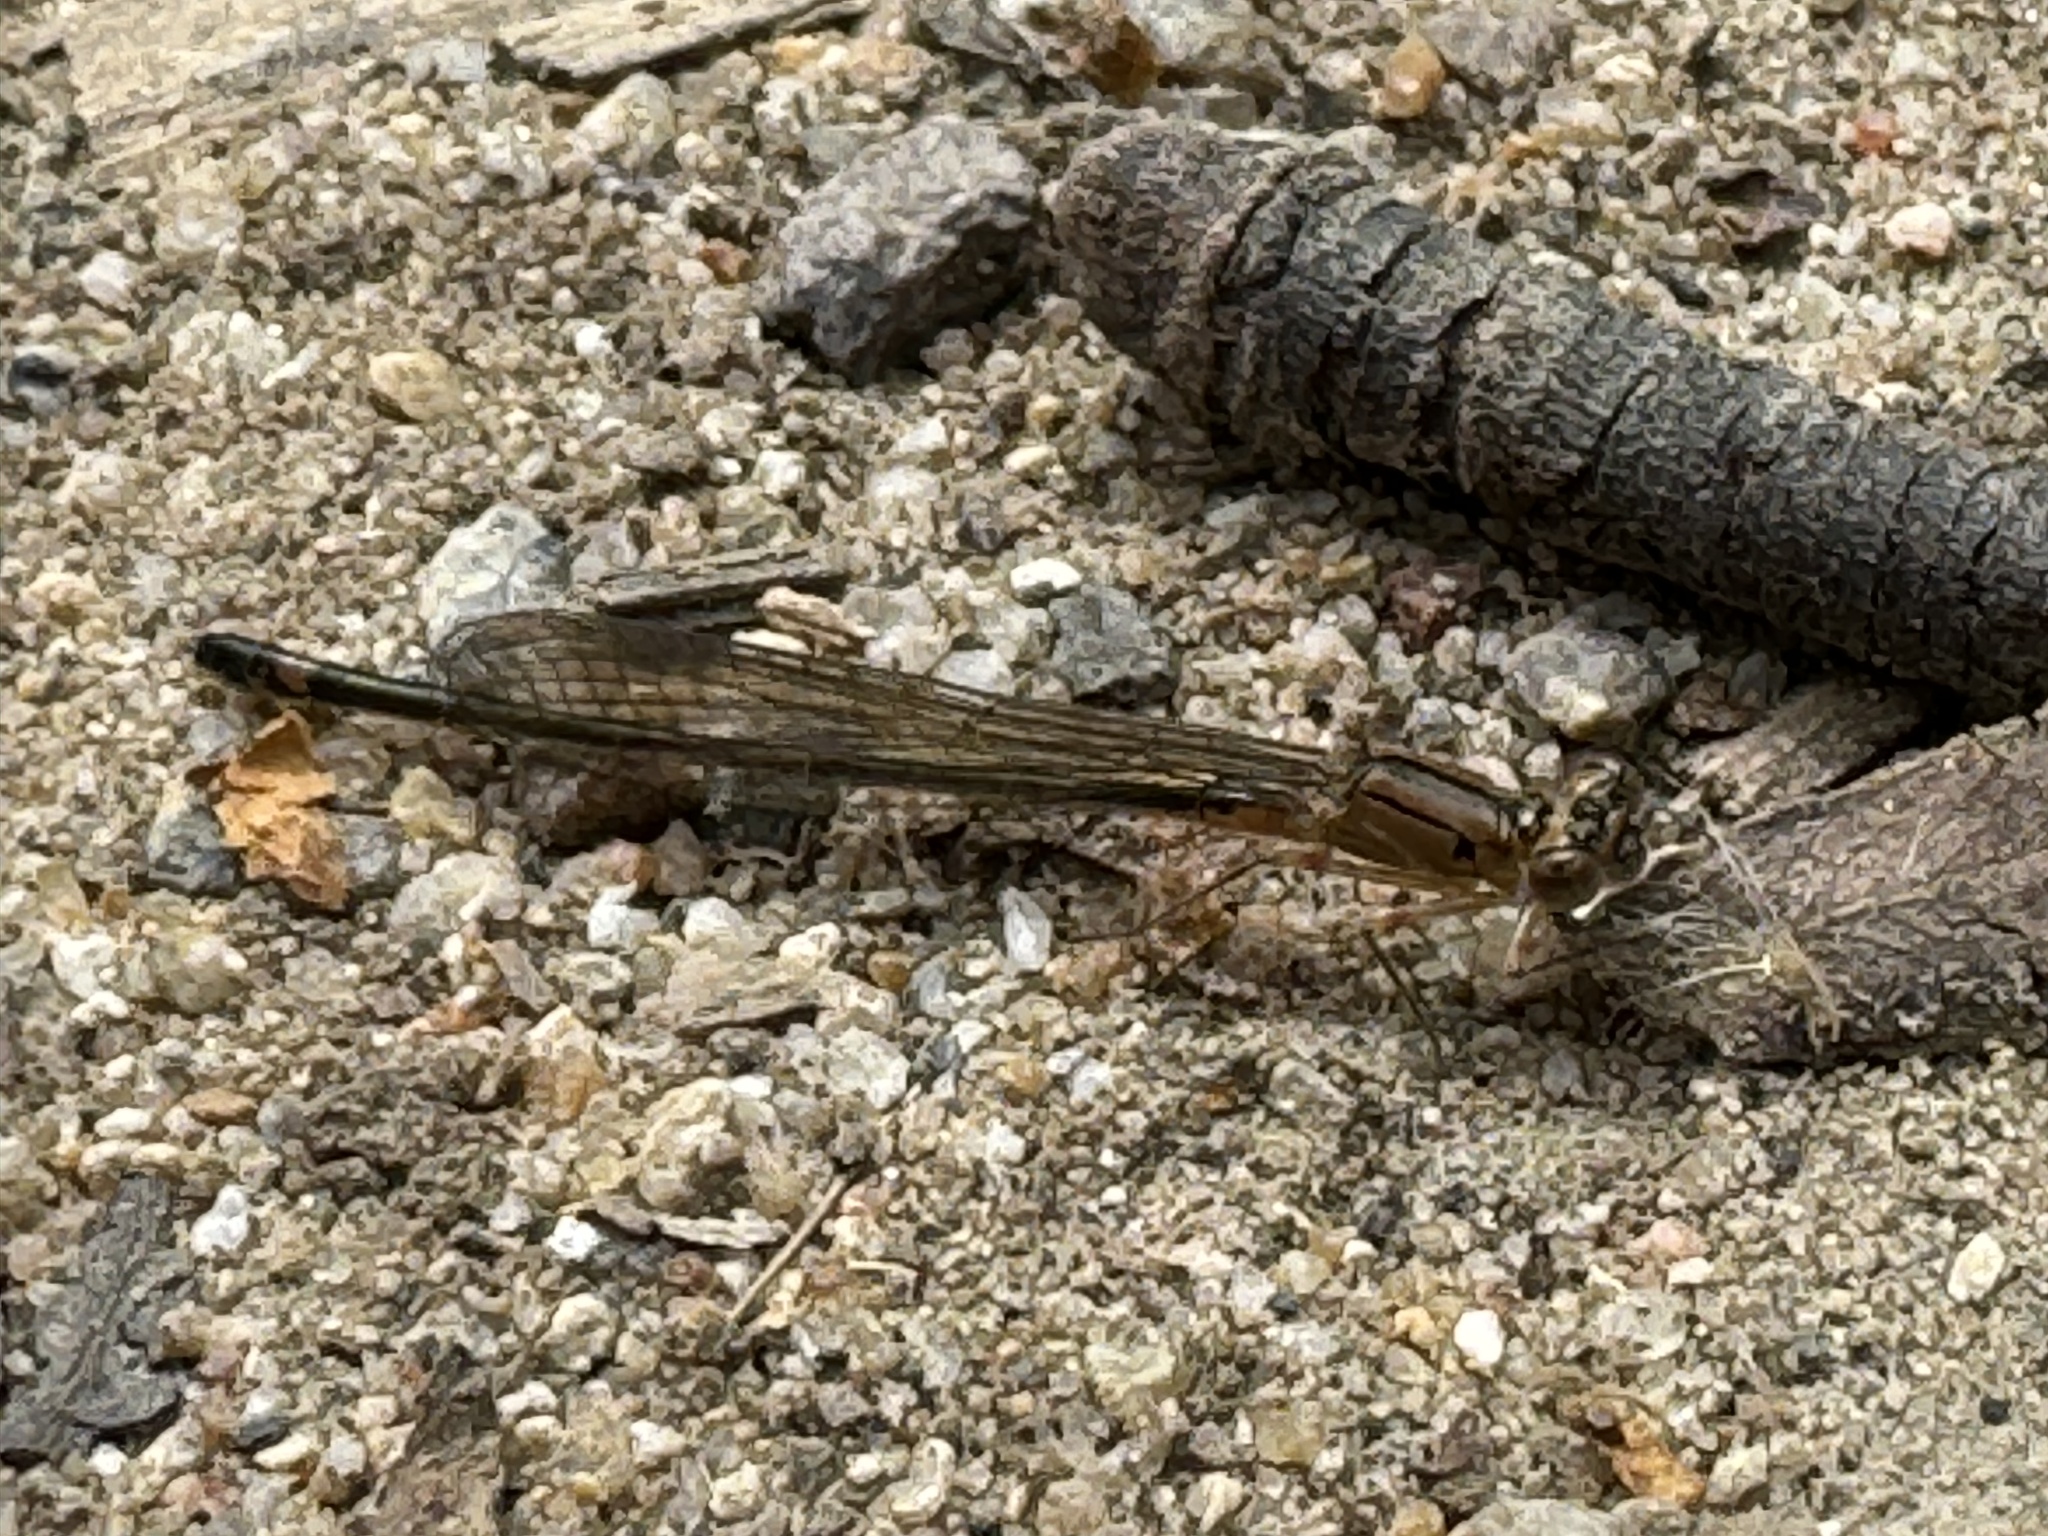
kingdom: Animalia
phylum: Arthropoda
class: Insecta
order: Odonata
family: Coenagrionidae
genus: Argia
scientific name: Argia lugens
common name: Sooty dancer
